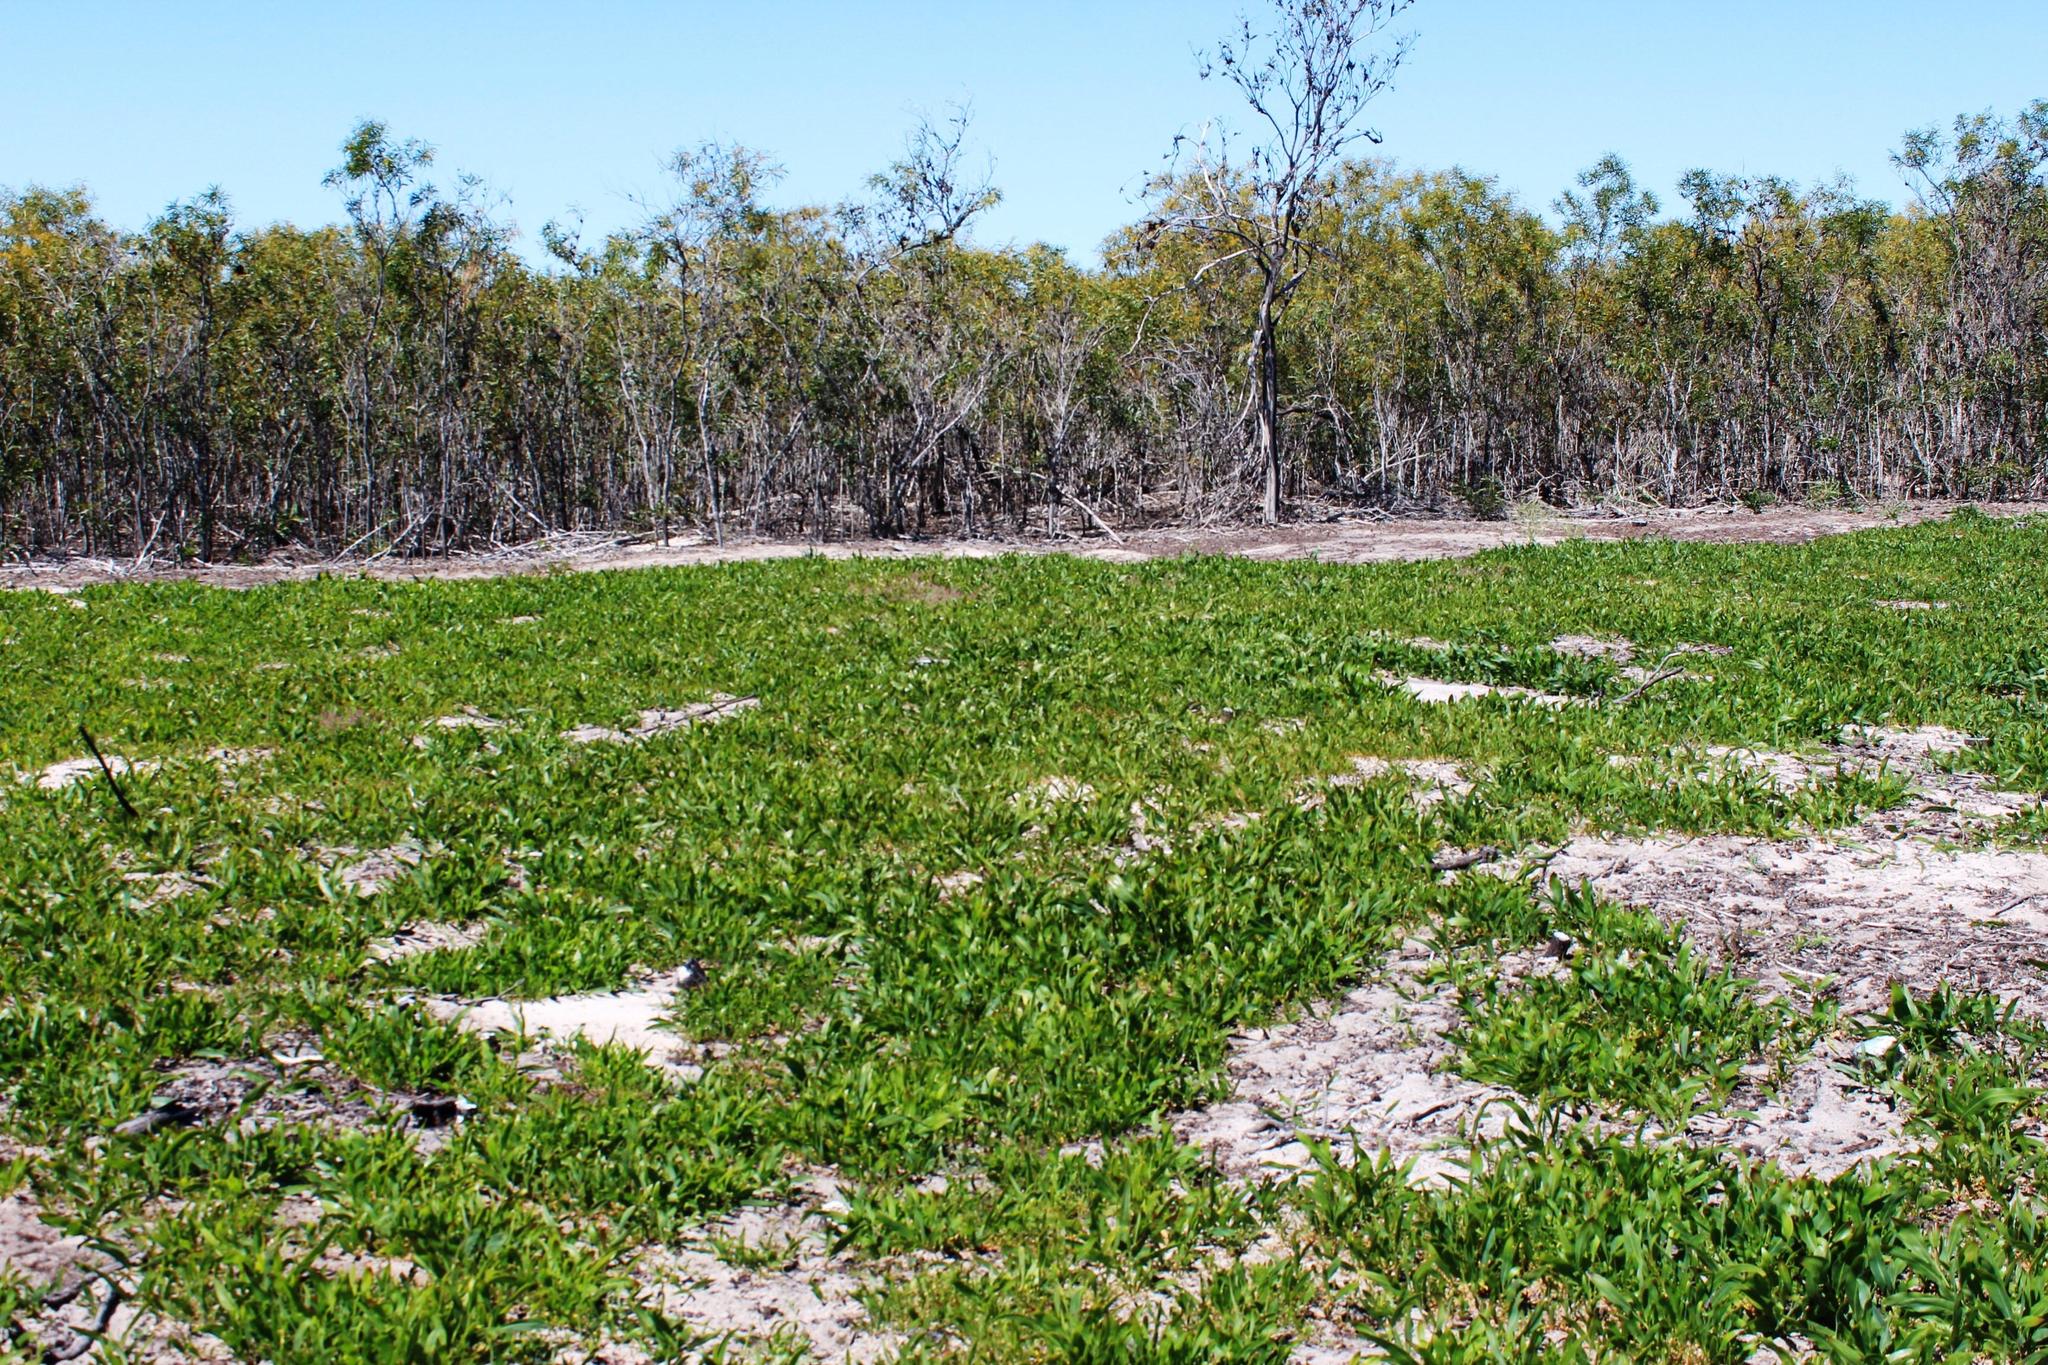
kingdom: Plantae
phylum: Tracheophyta
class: Magnoliopsida
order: Fabales
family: Fabaceae
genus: Acacia
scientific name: Acacia saligna
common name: Orange wattle
